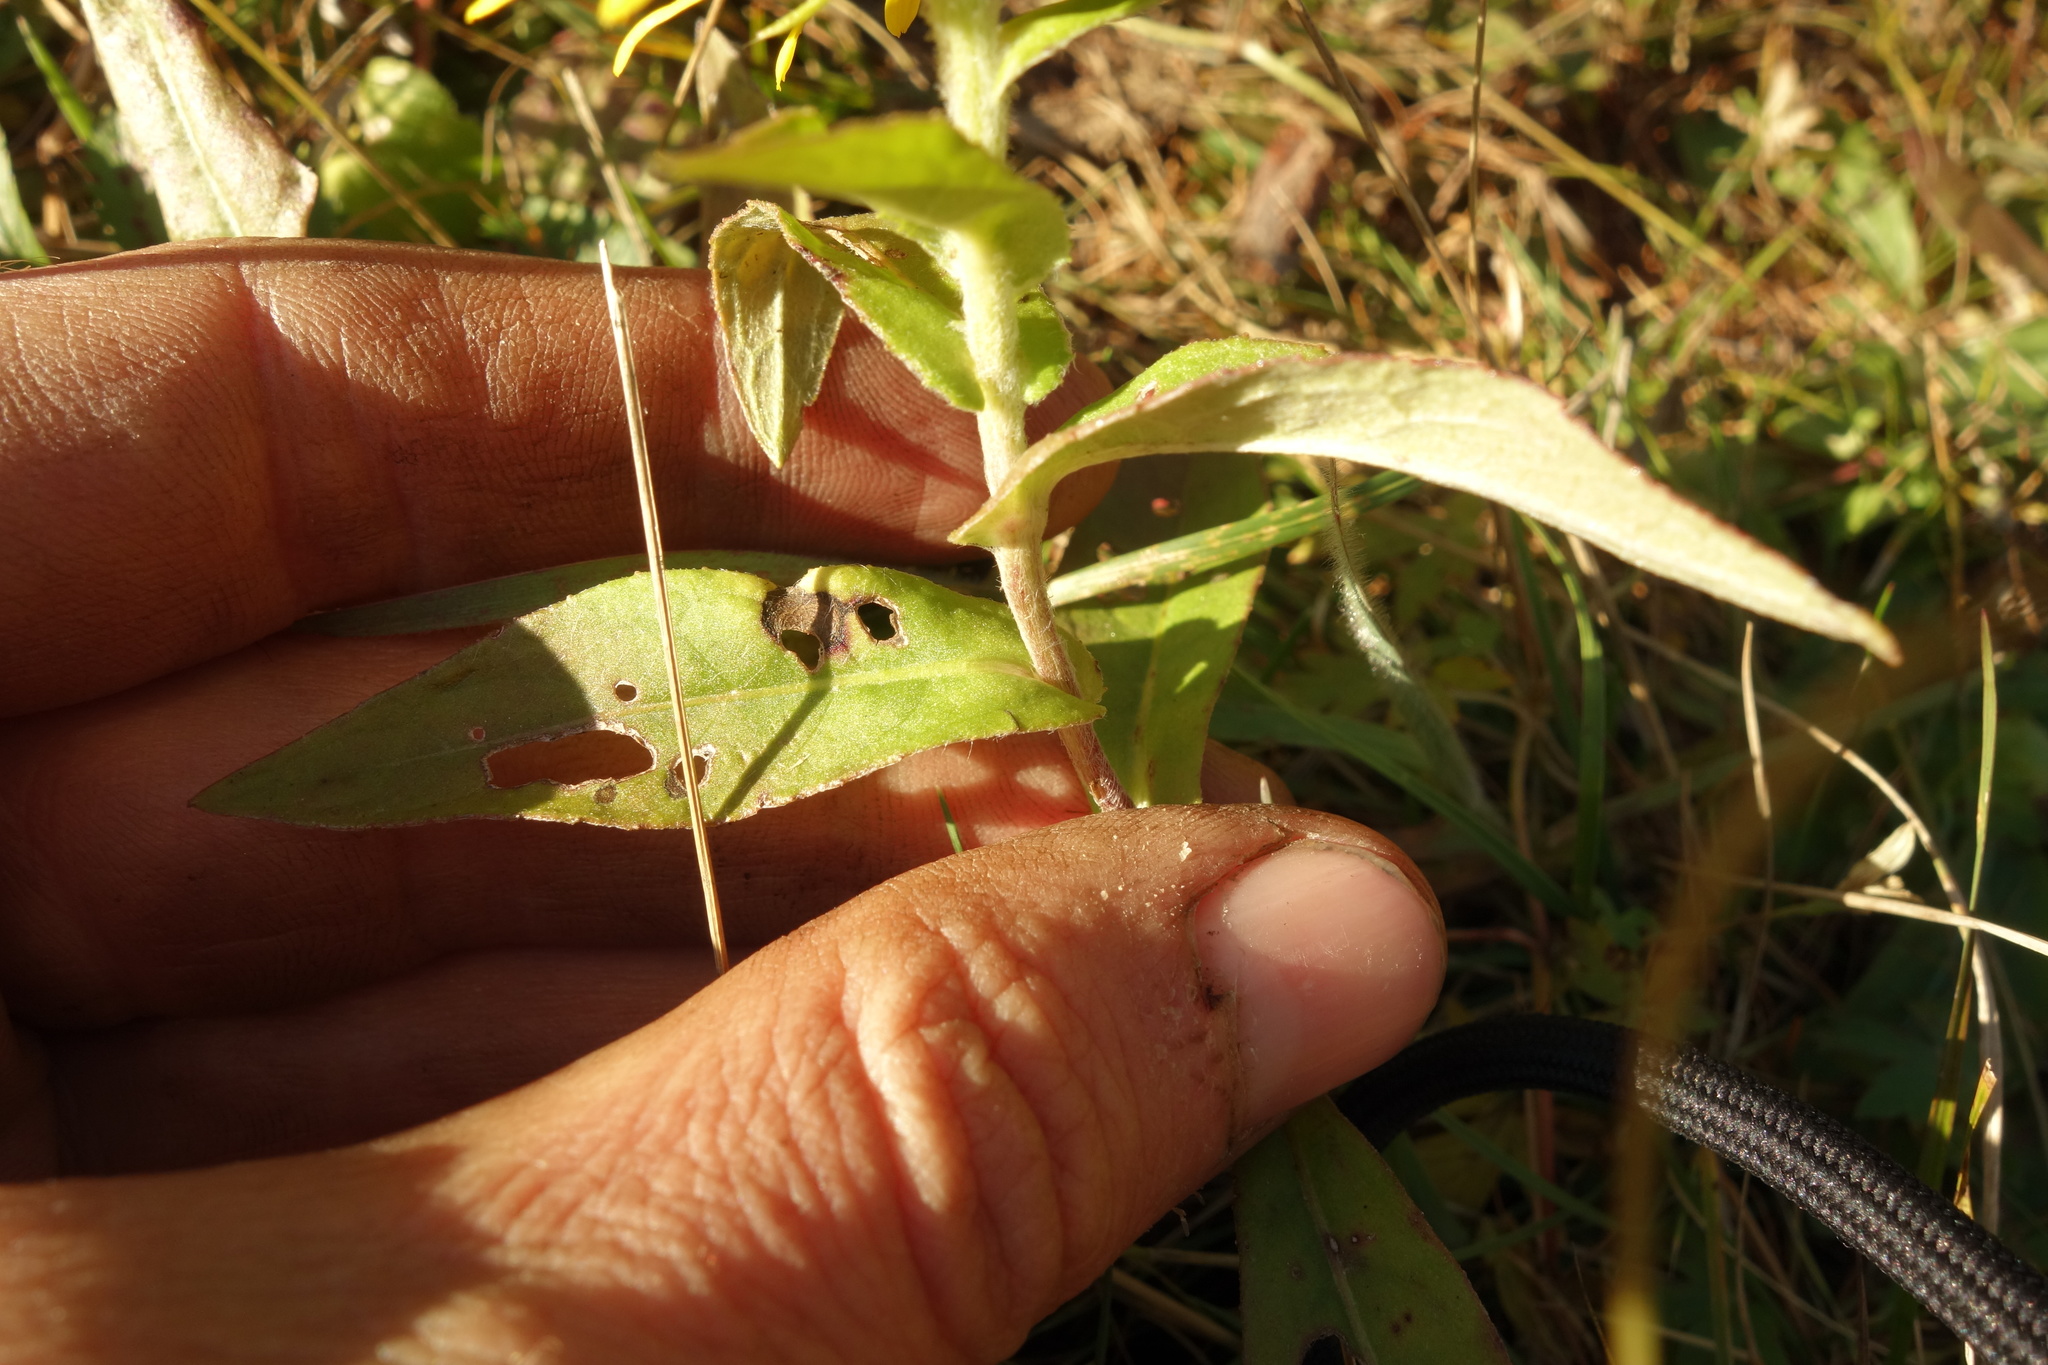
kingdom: Plantae
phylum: Tracheophyta
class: Magnoliopsida
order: Asterales
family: Asteraceae
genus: Pentanema
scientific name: Pentanema britannicum
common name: British elecampane
